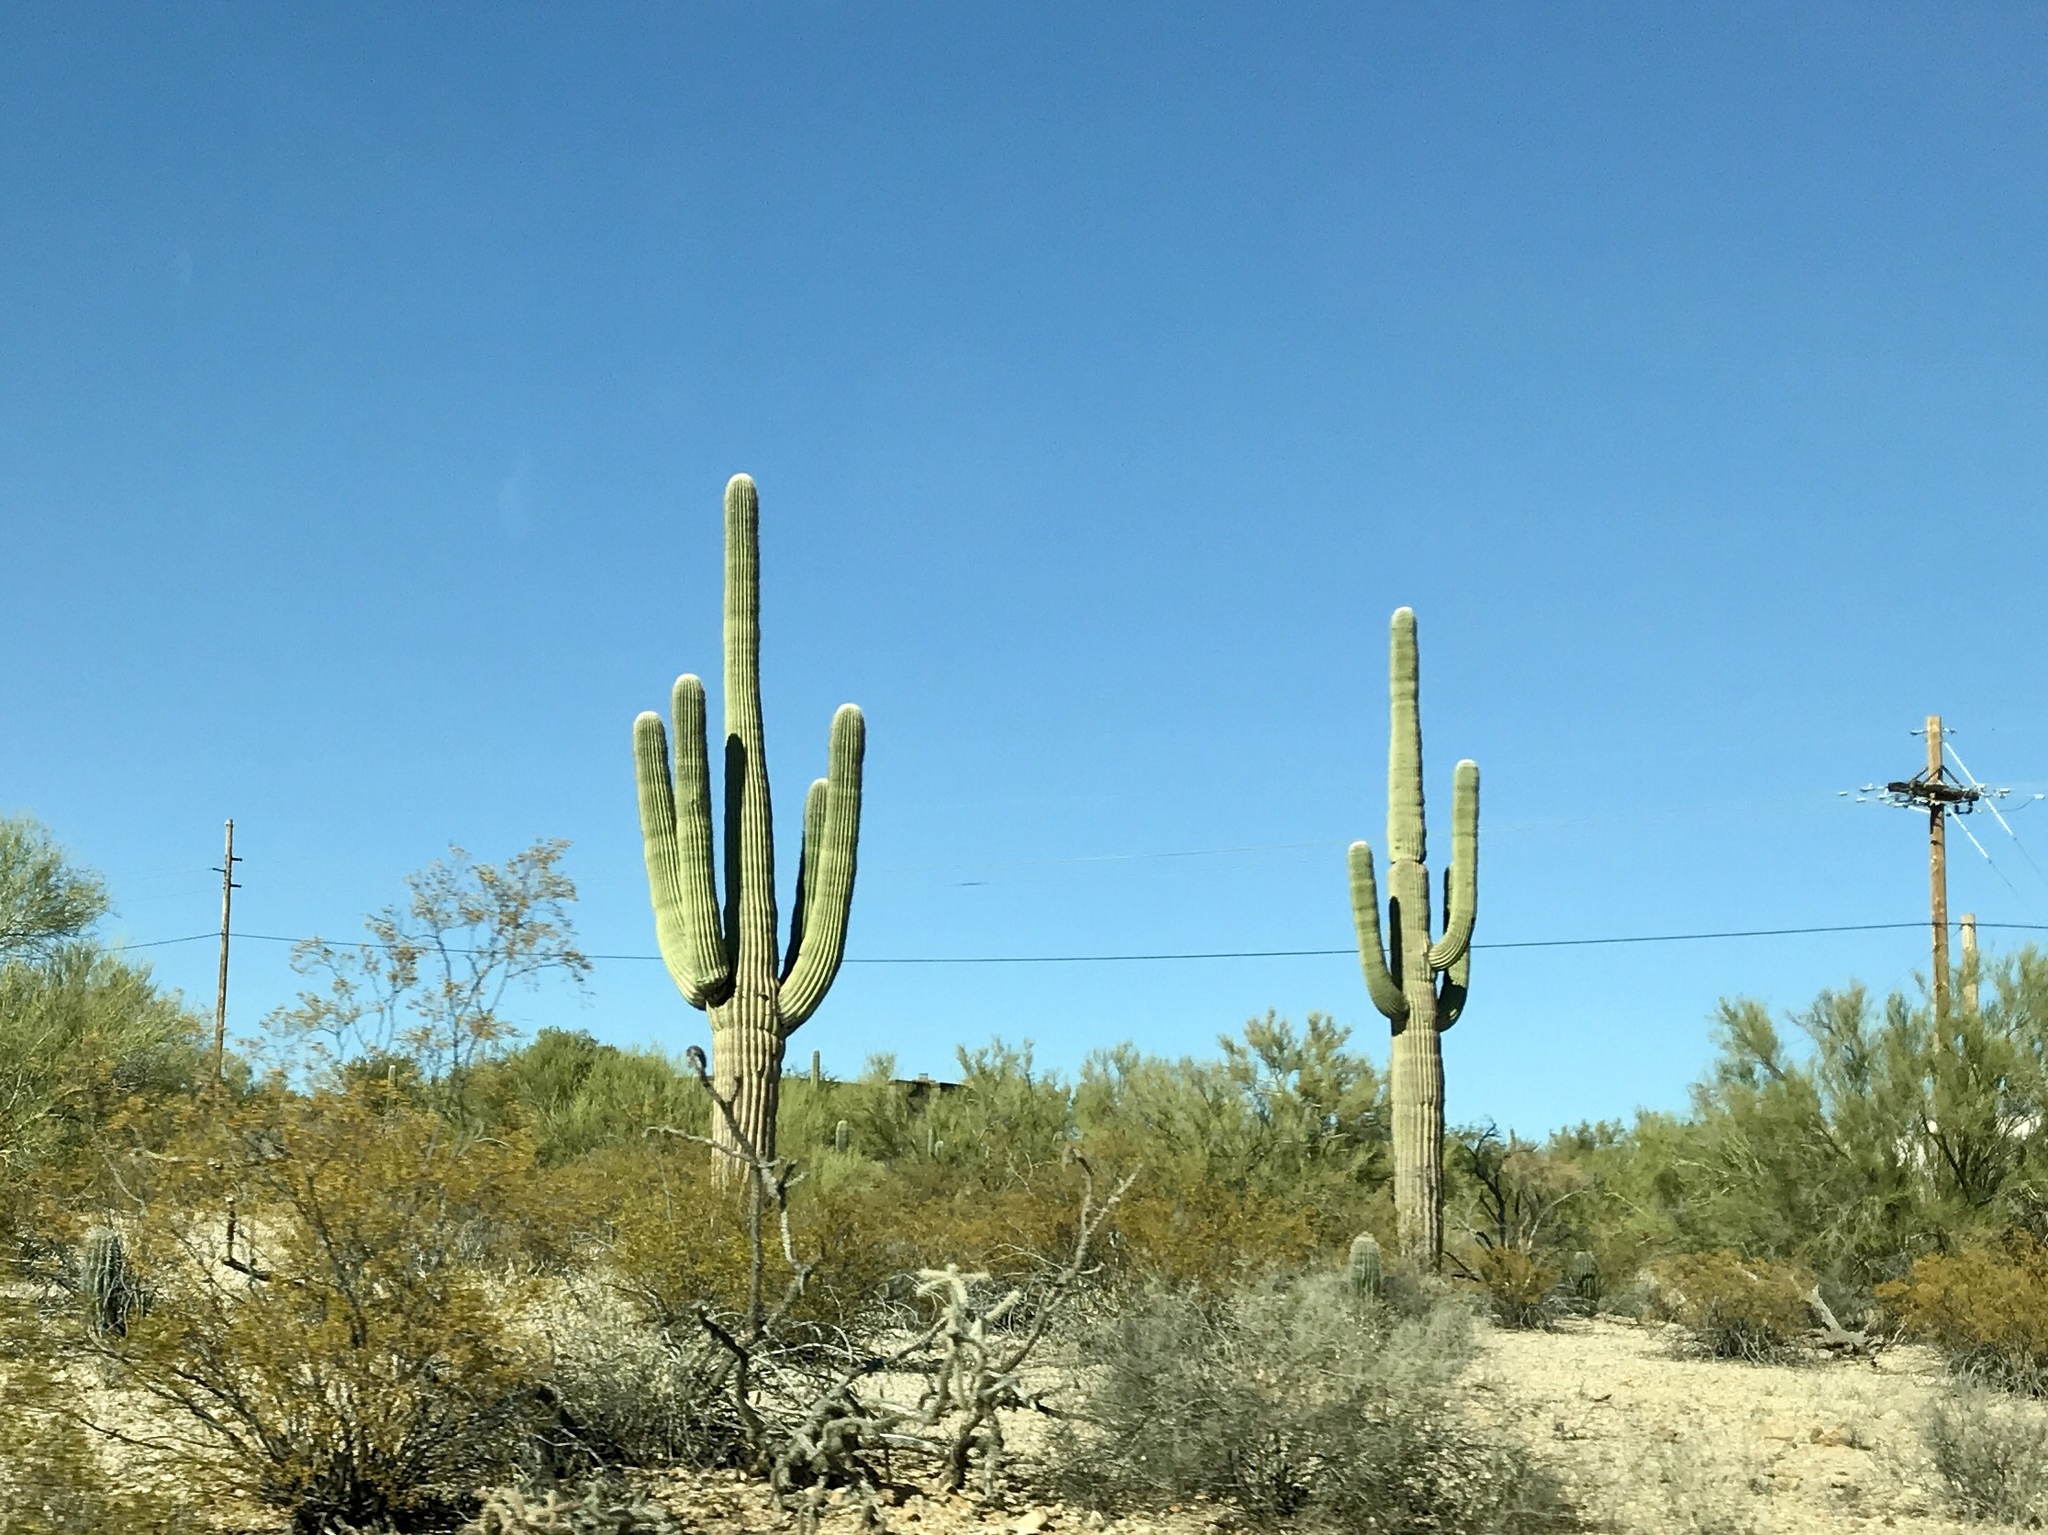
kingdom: Plantae
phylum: Tracheophyta
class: Magnoliopsida
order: Caryophyllales
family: Cactaceae
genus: Carnegiea
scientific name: Carnegiea gigantea
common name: Saguaro
